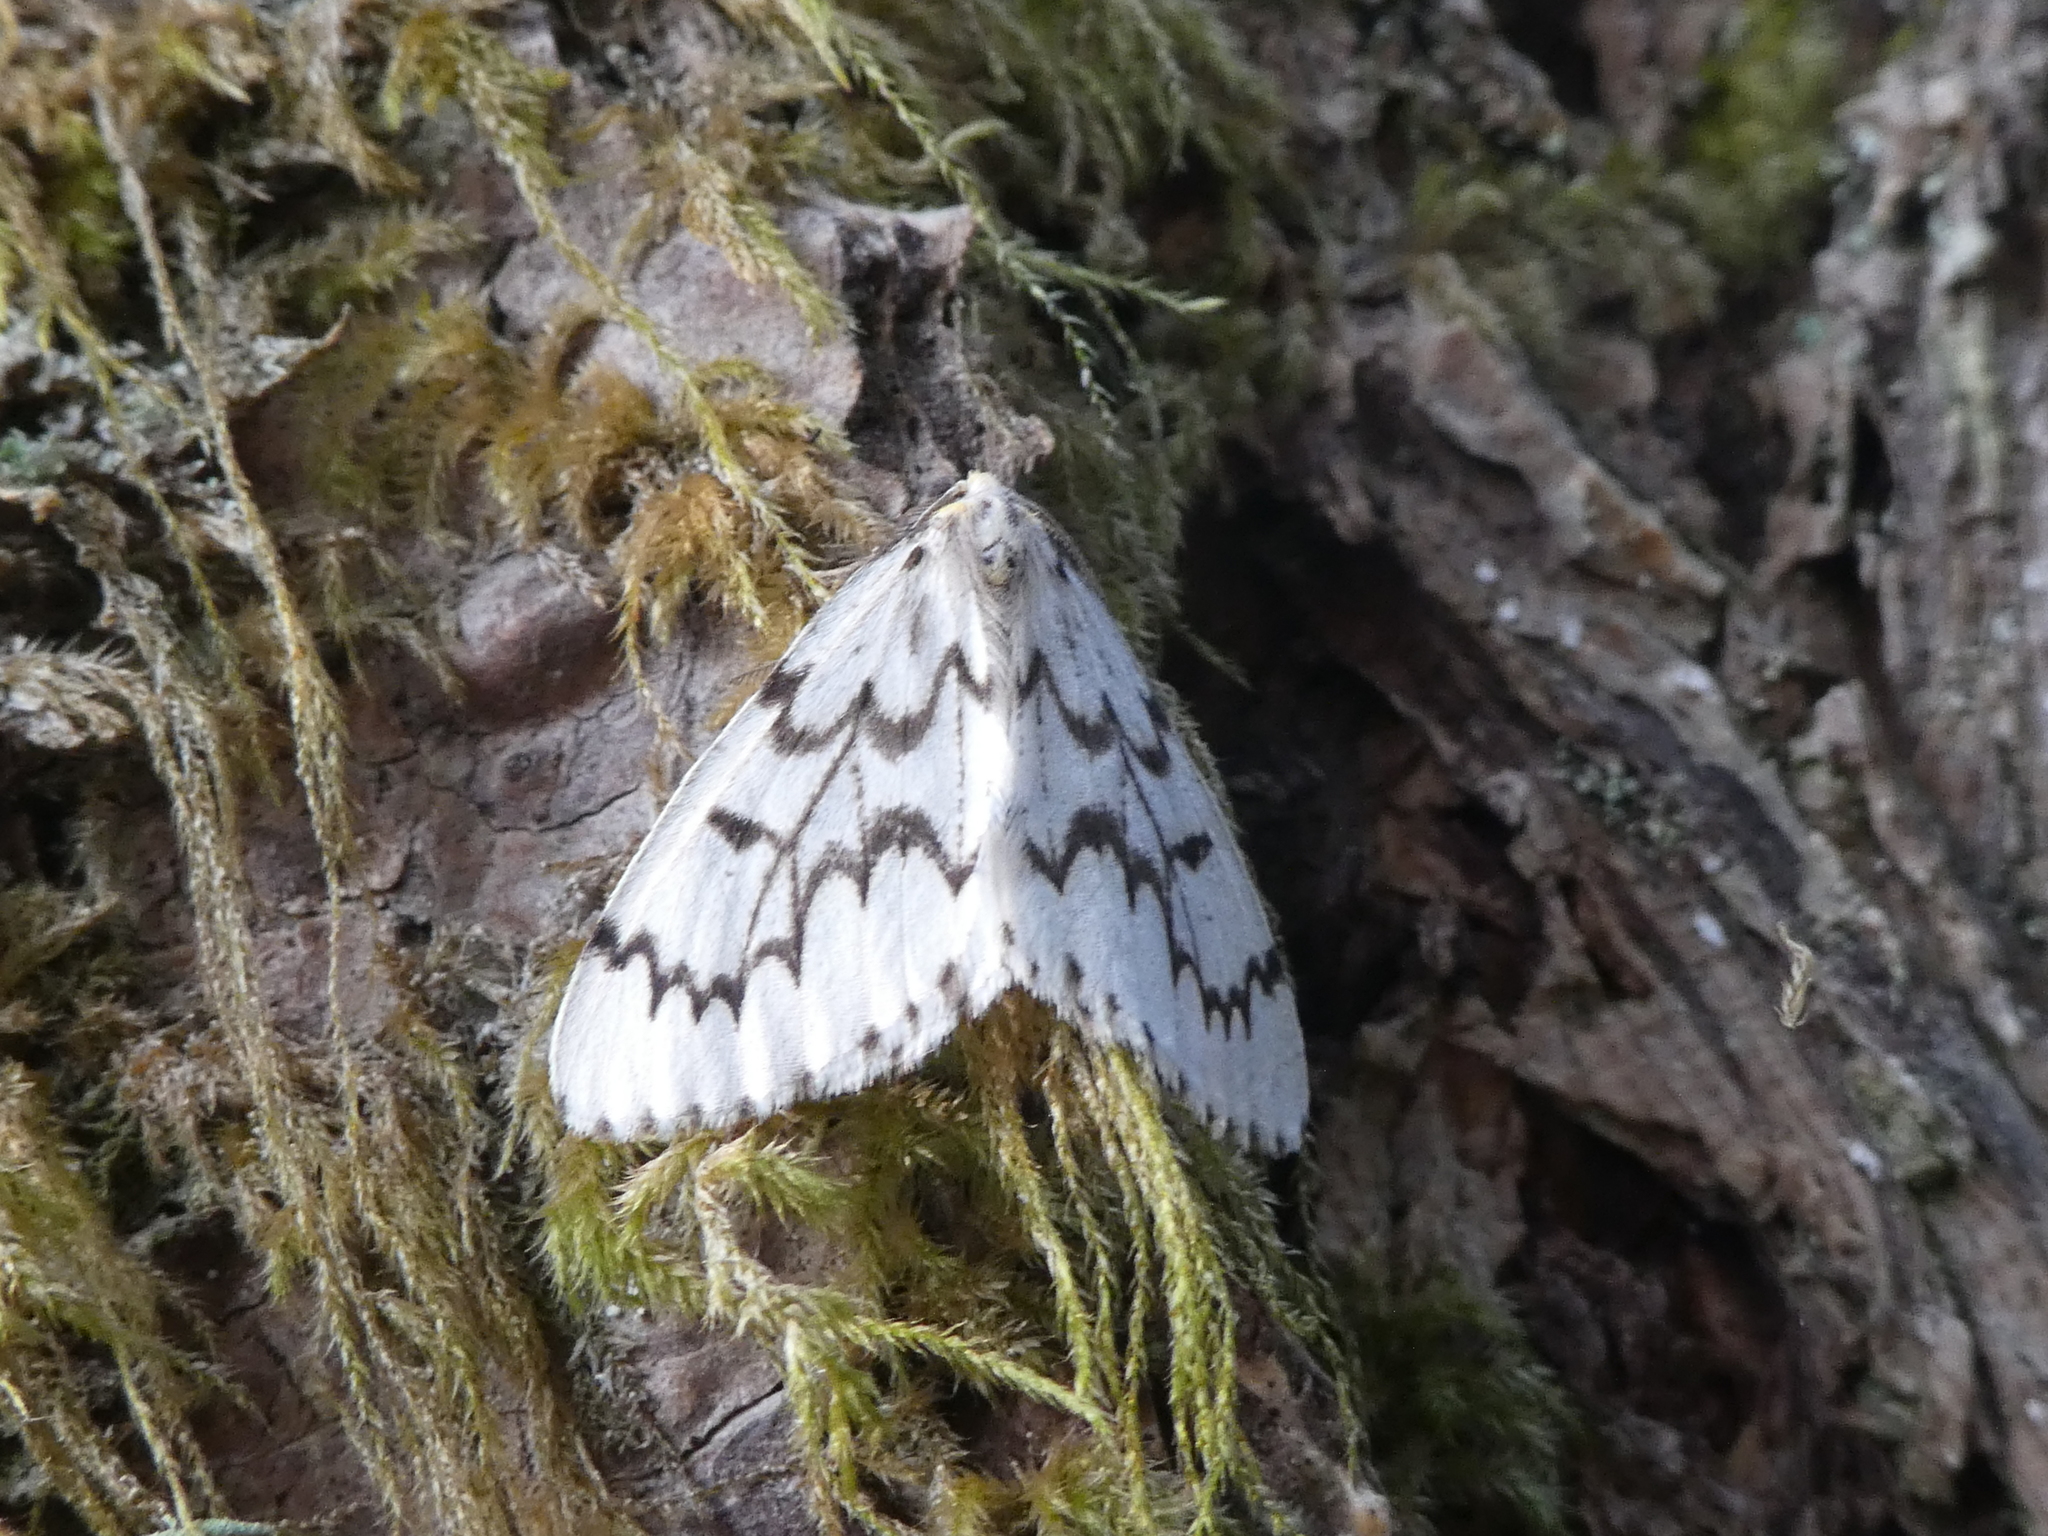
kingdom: Animalia
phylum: Arthropoda
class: Insecta
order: Lepidoptera
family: Geometridae
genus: Nepytia
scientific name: Nepytia phantasmaria
